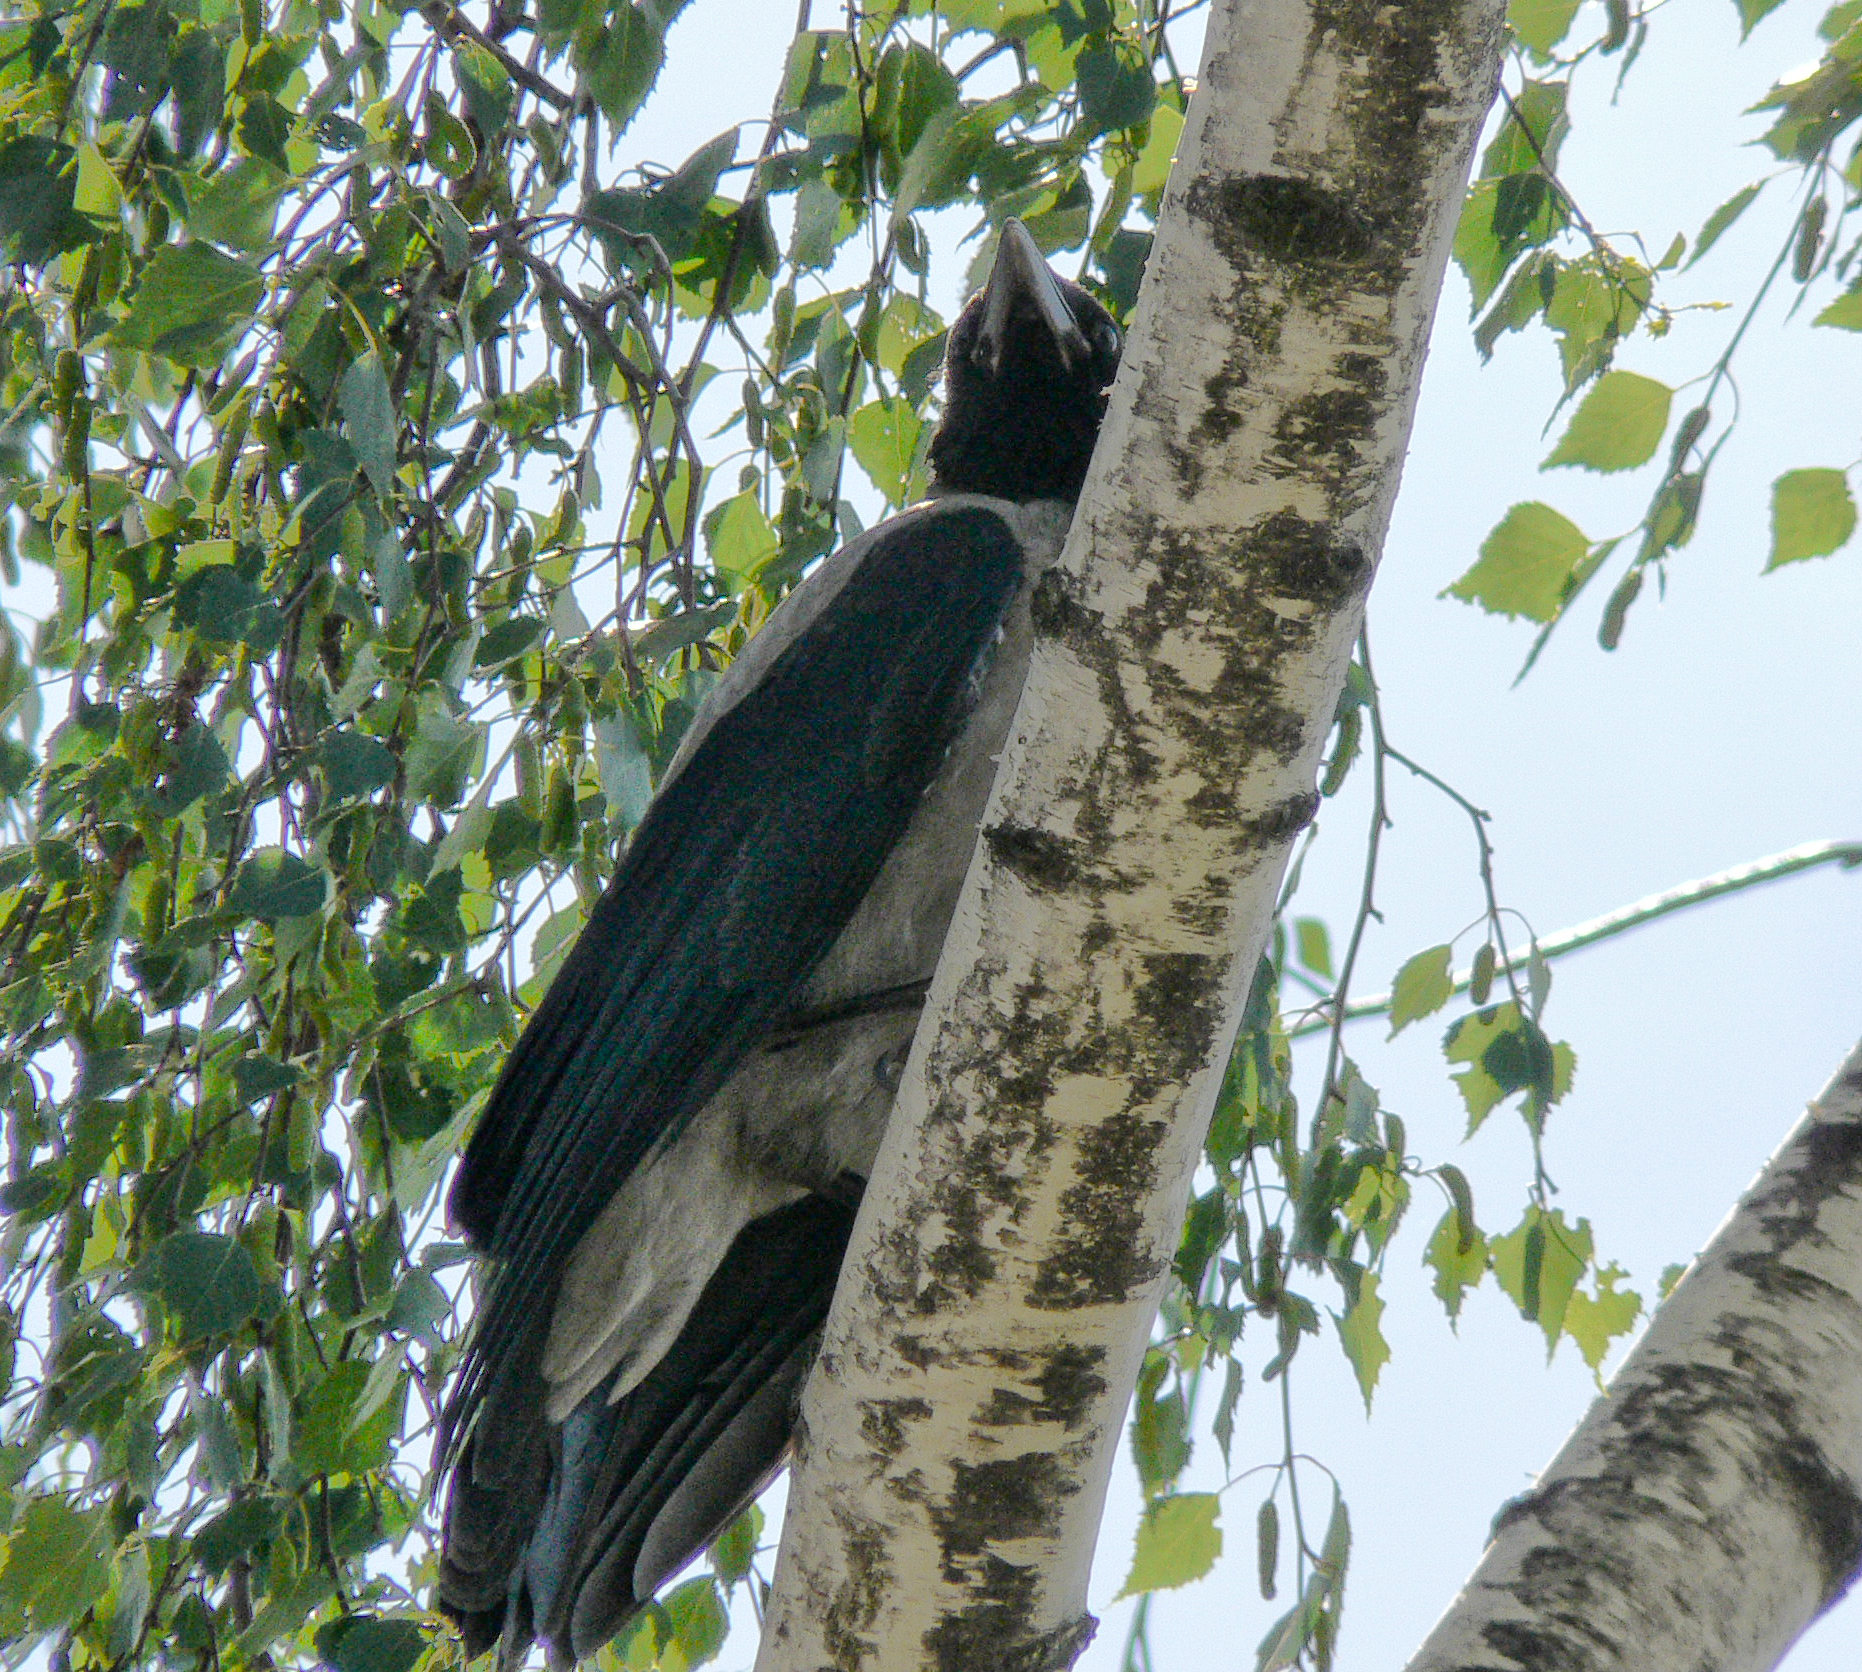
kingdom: Animalia
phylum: Chordata
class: Aves
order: Passeriformes
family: Corvidae
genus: Corvus
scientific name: Corvus cornix
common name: Hooded crow
